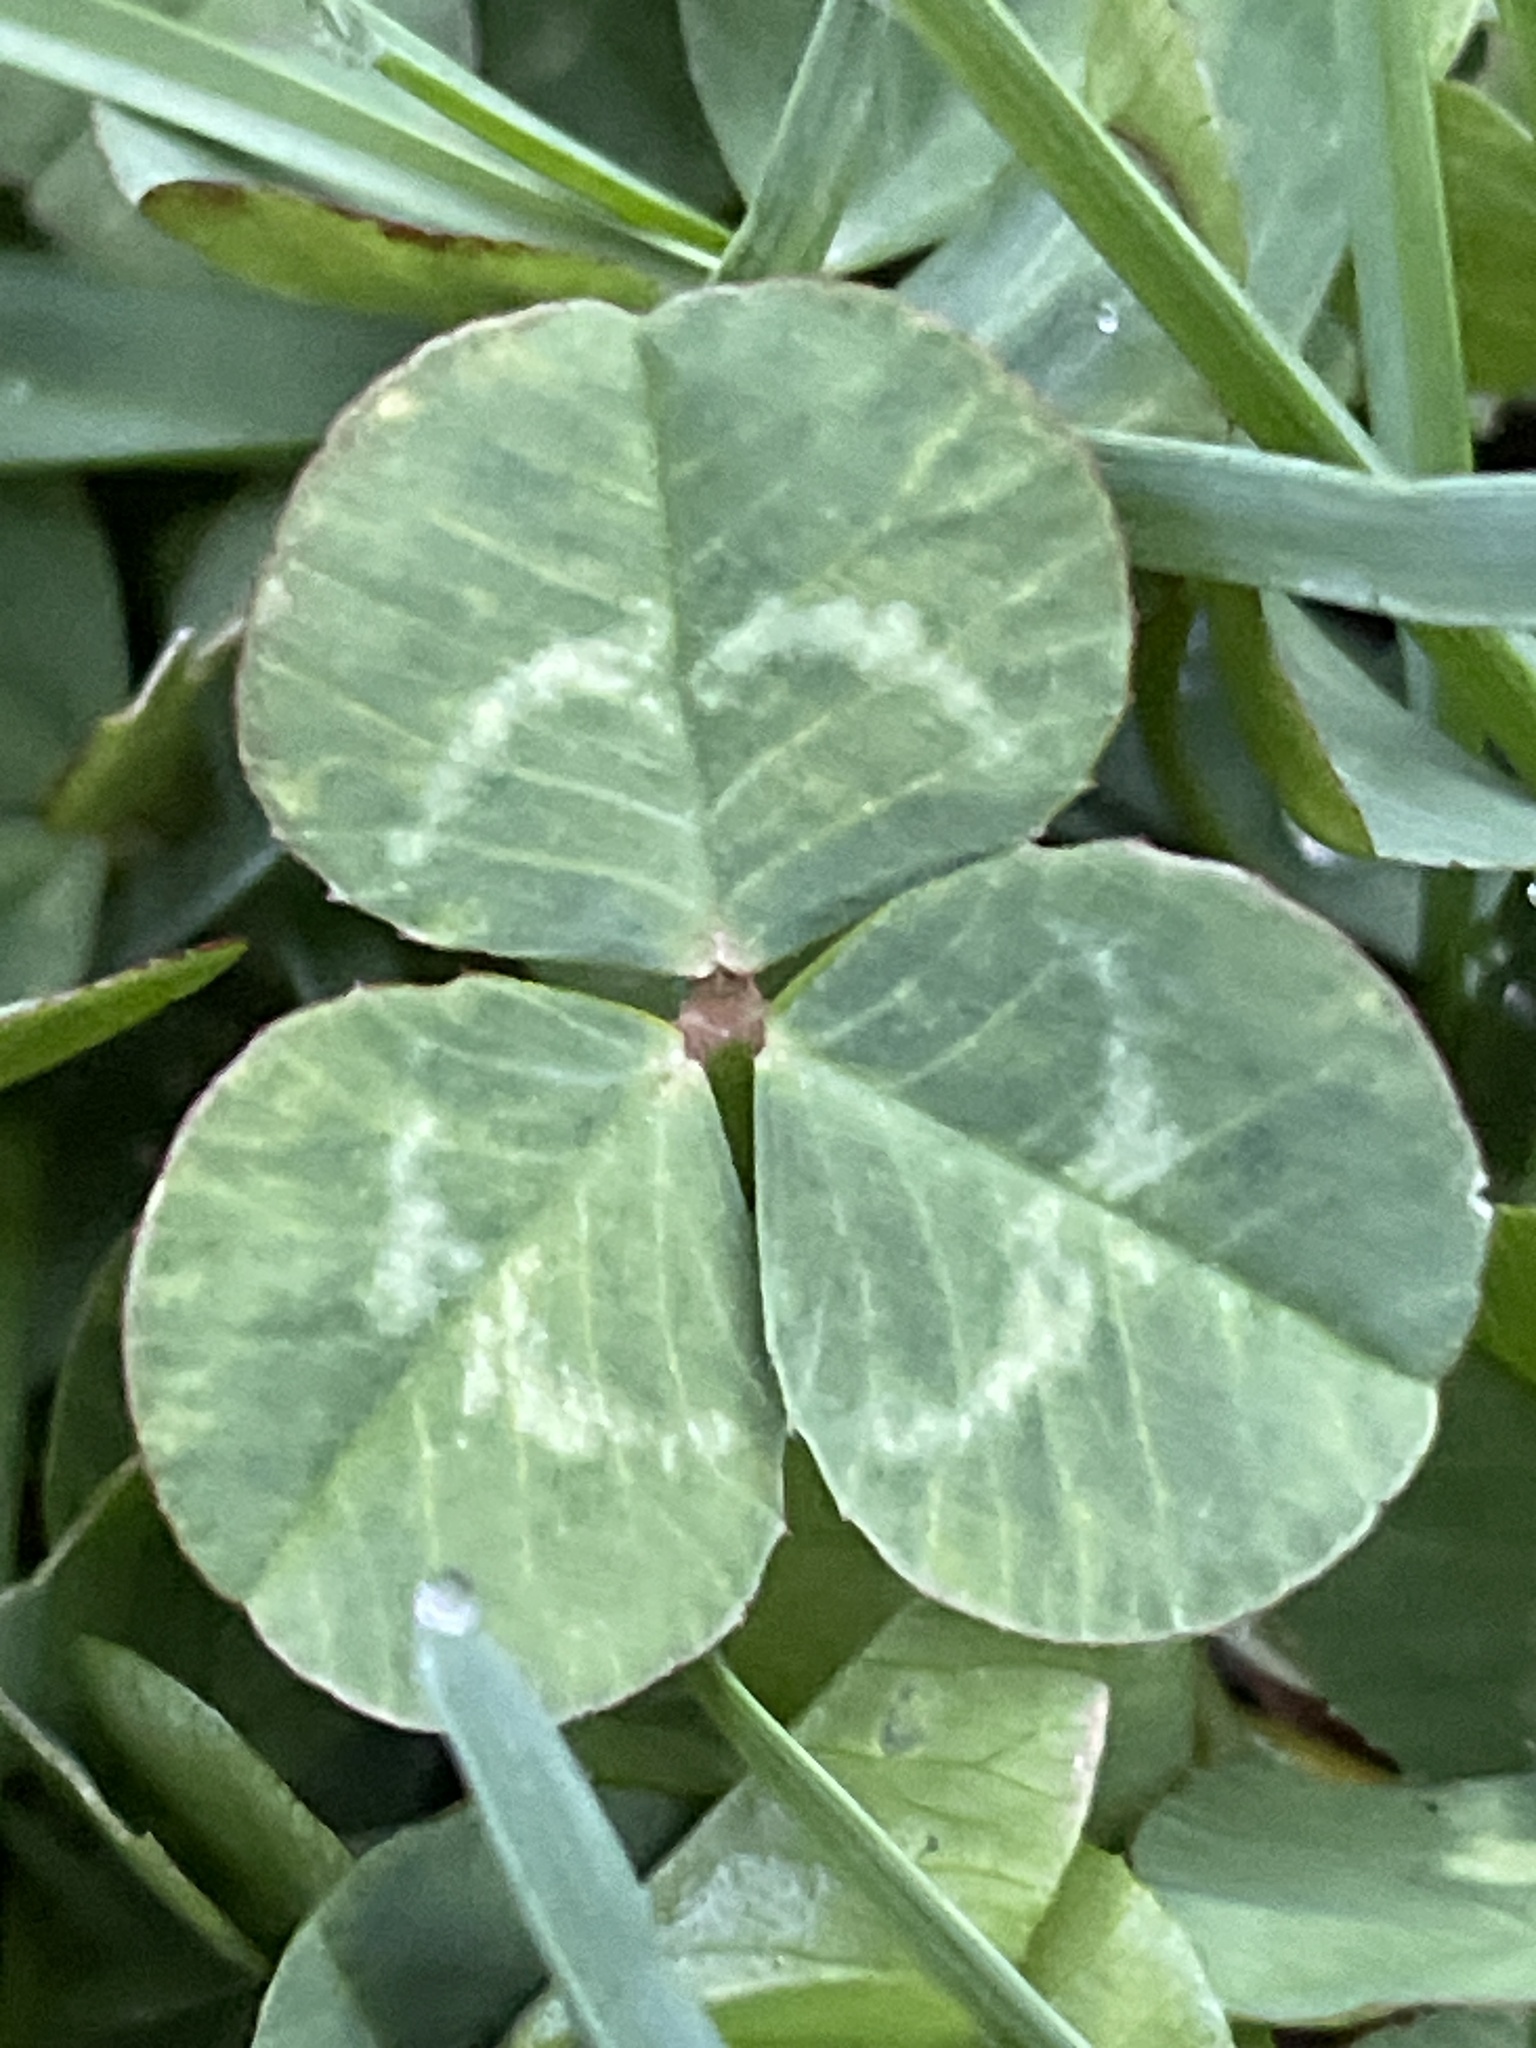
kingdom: Plantae
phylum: Tracheophyta
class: Magnoliopsida
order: Fabales
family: Fabaceae
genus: Trifolium
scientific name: Trifolium repens
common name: White clover
